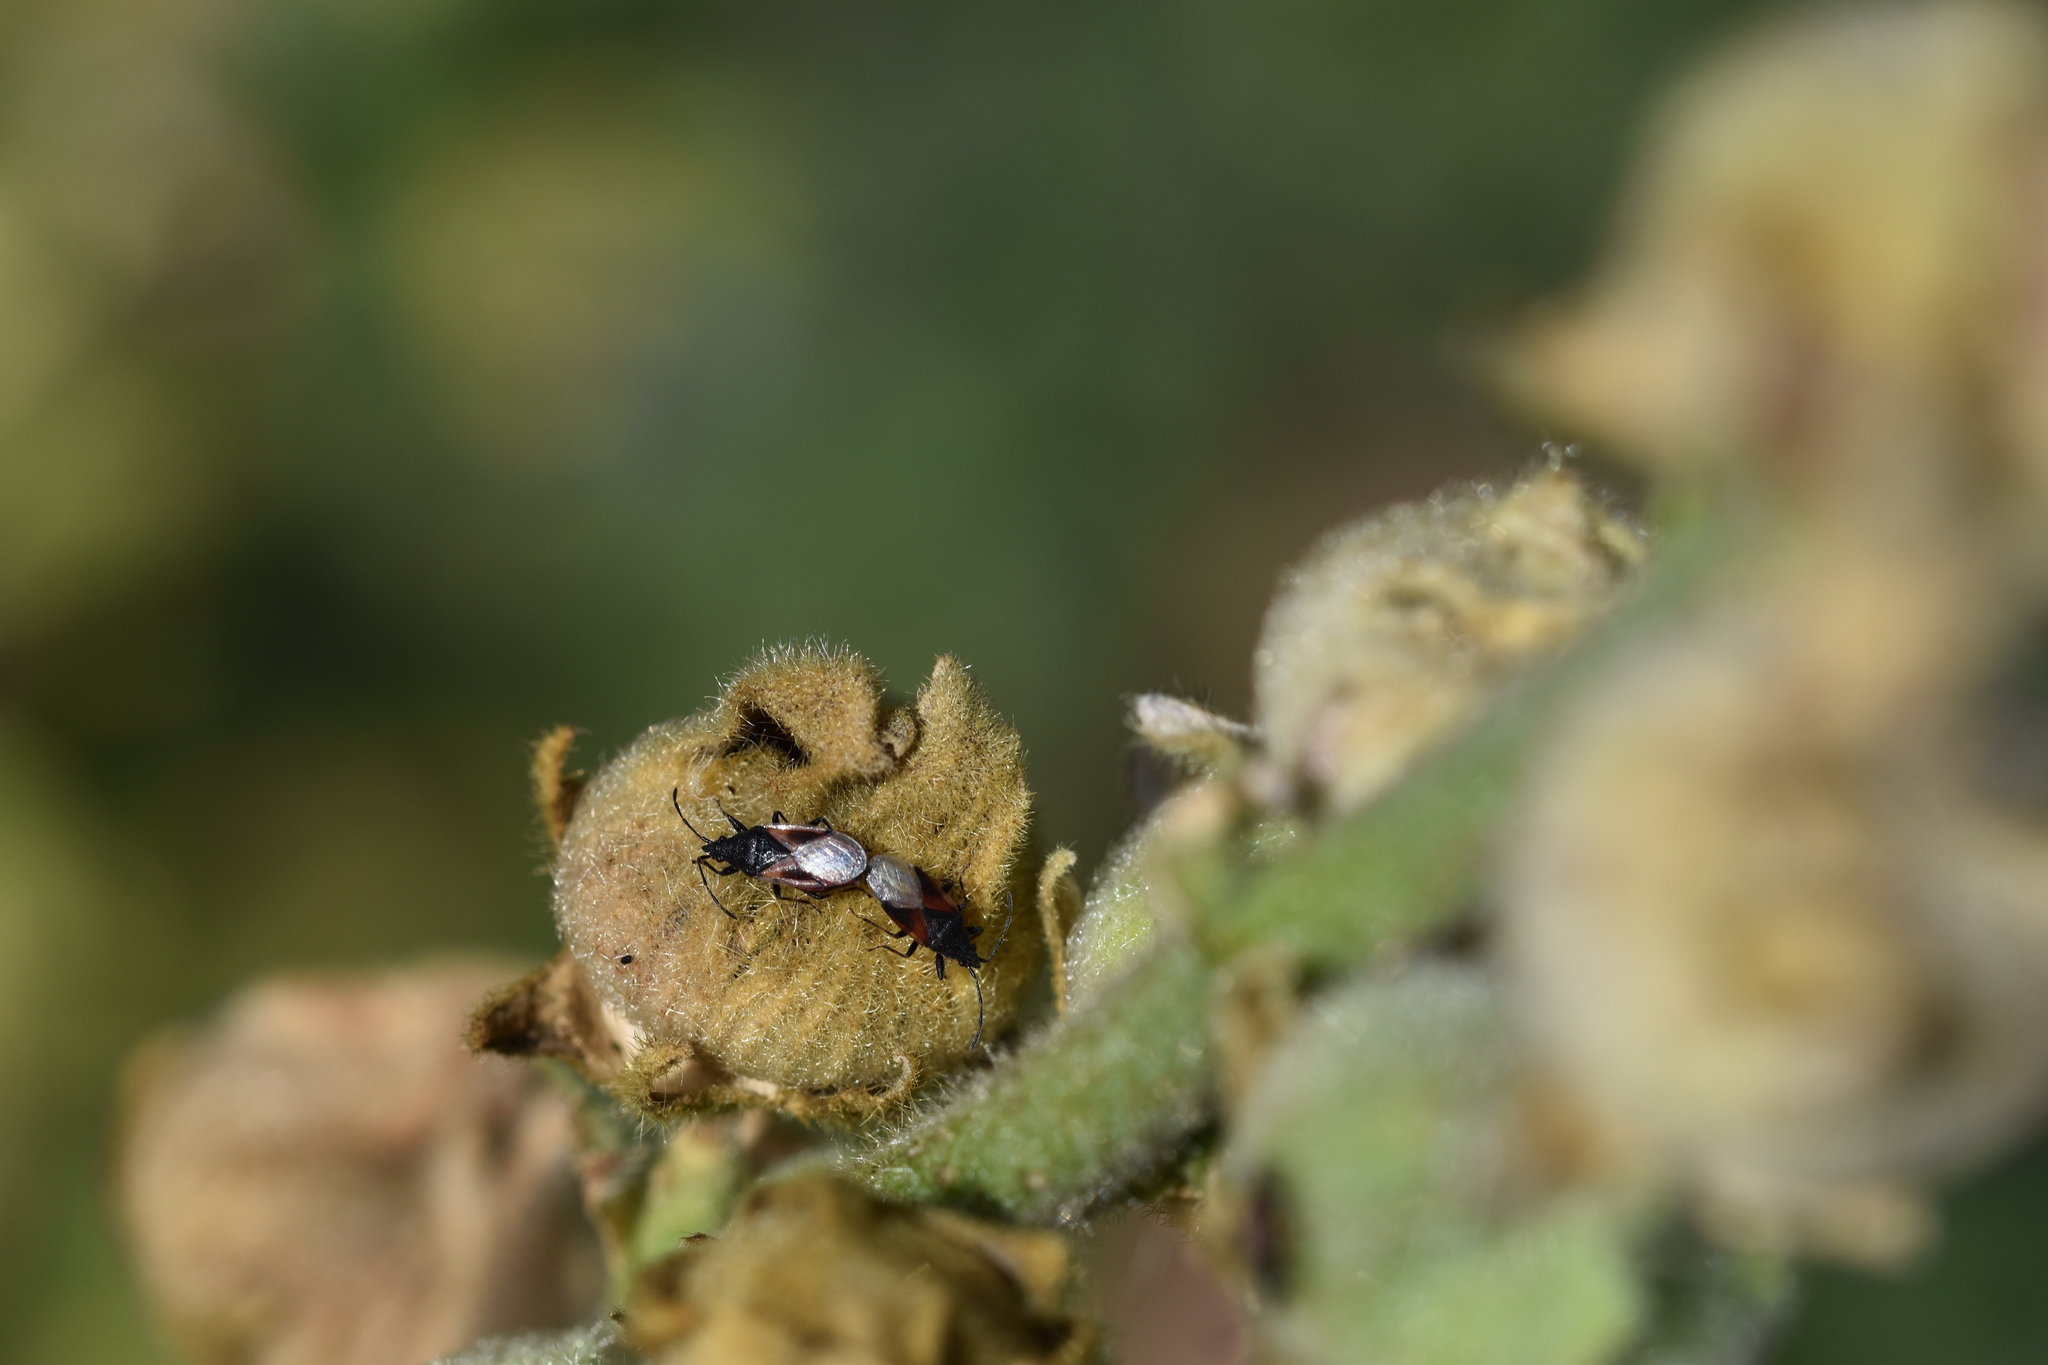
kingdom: Animalia
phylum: Arthropoda
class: Insecta
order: Hemiptera
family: Oxycarenidae
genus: Oxycarenus
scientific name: Oxycarenus lavaterae
